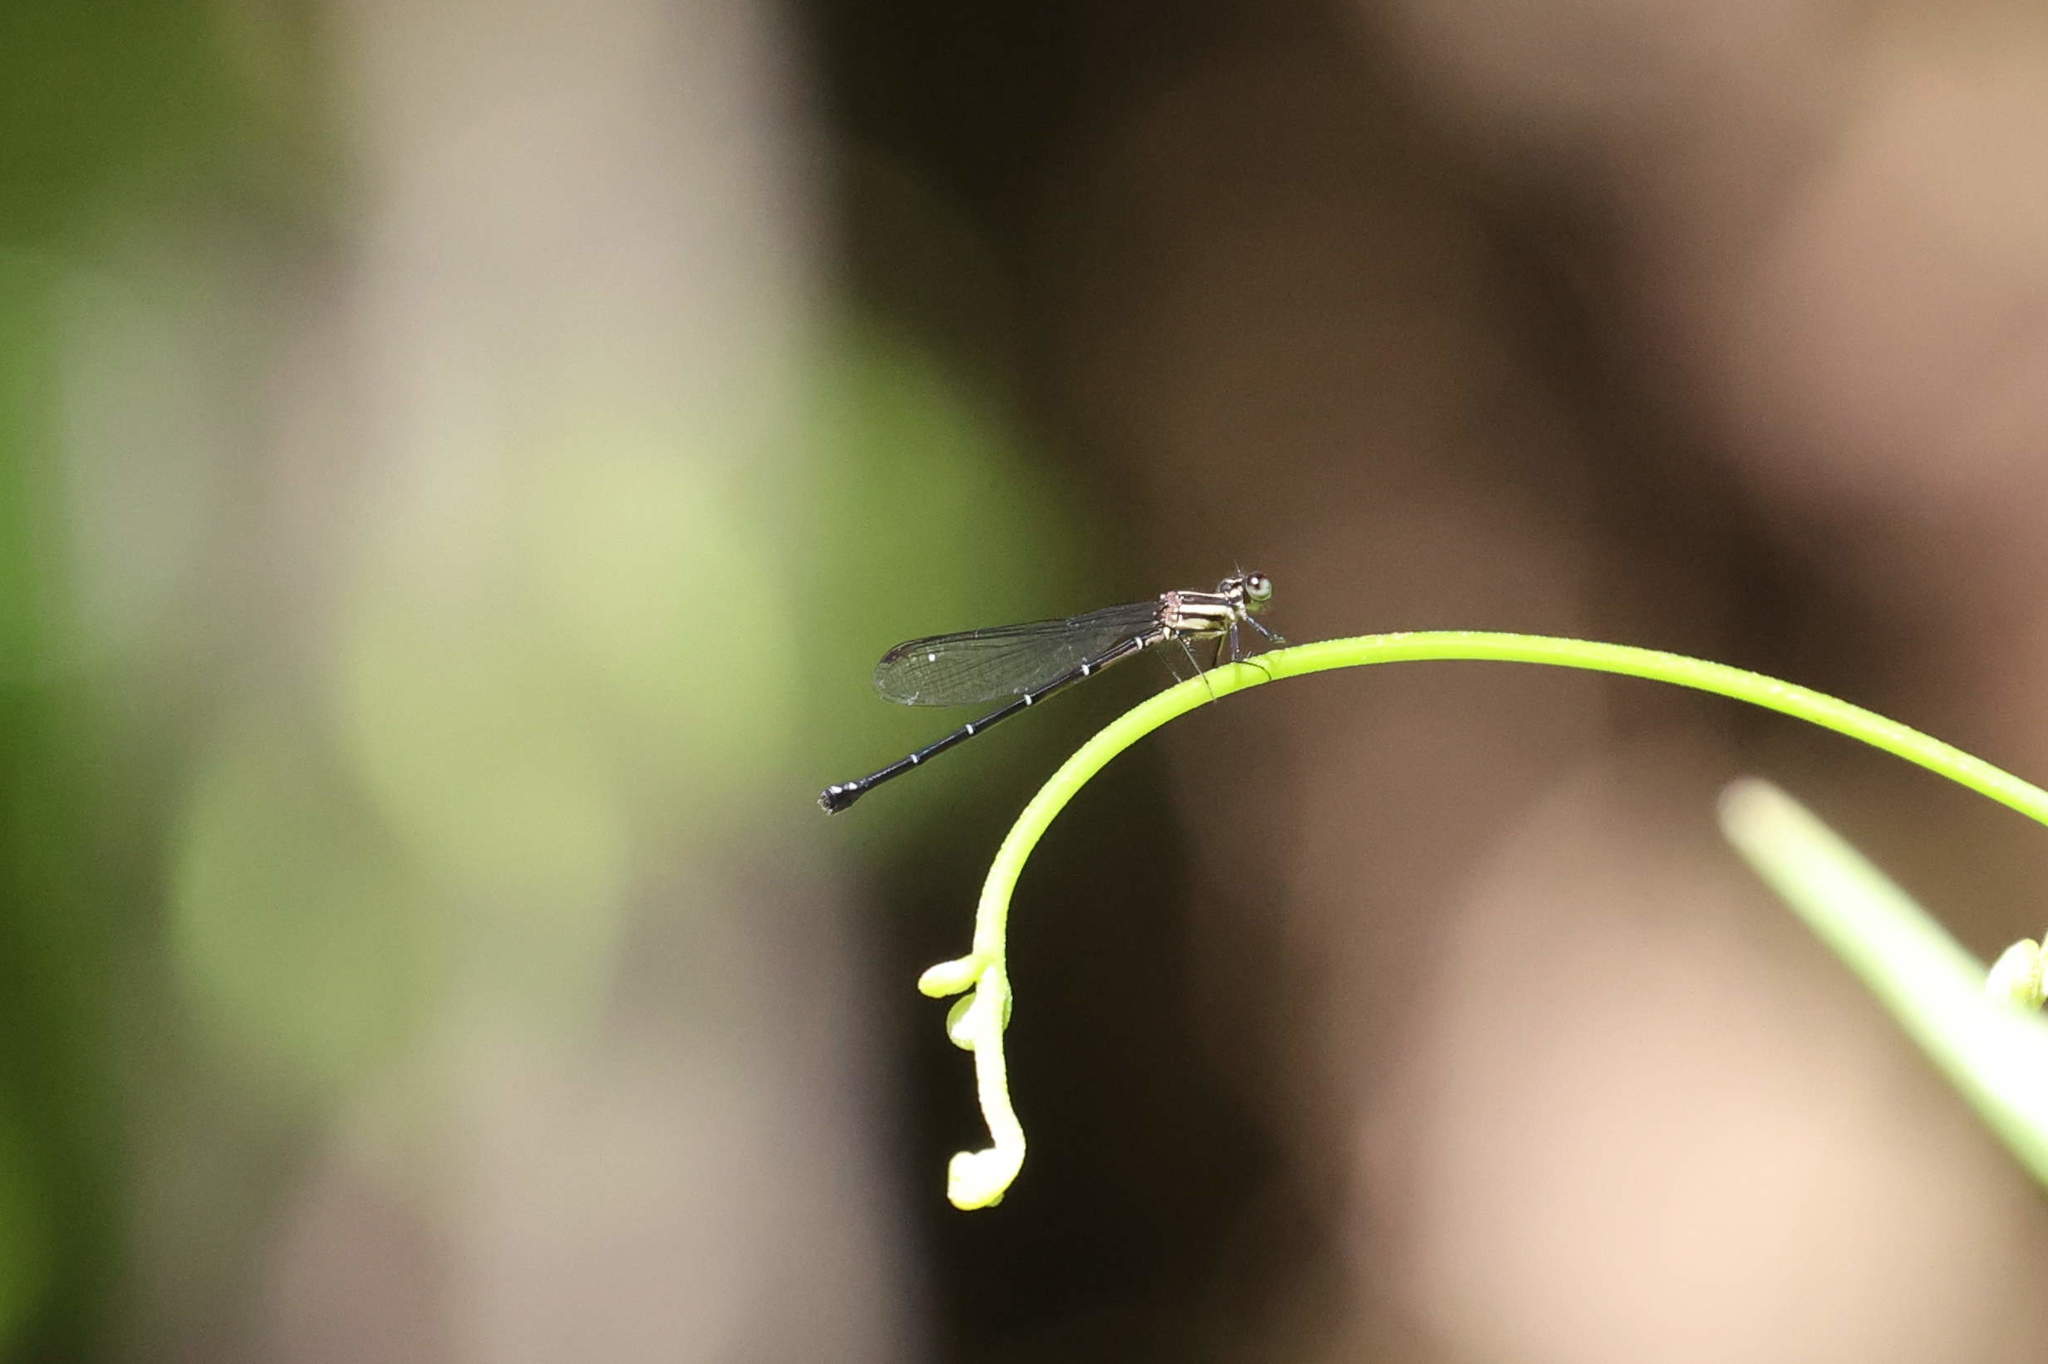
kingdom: Animalia
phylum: Arthropoda
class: Insecta
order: Odonata
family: Coenagrionidae
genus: Argia
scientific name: Argia concinna
